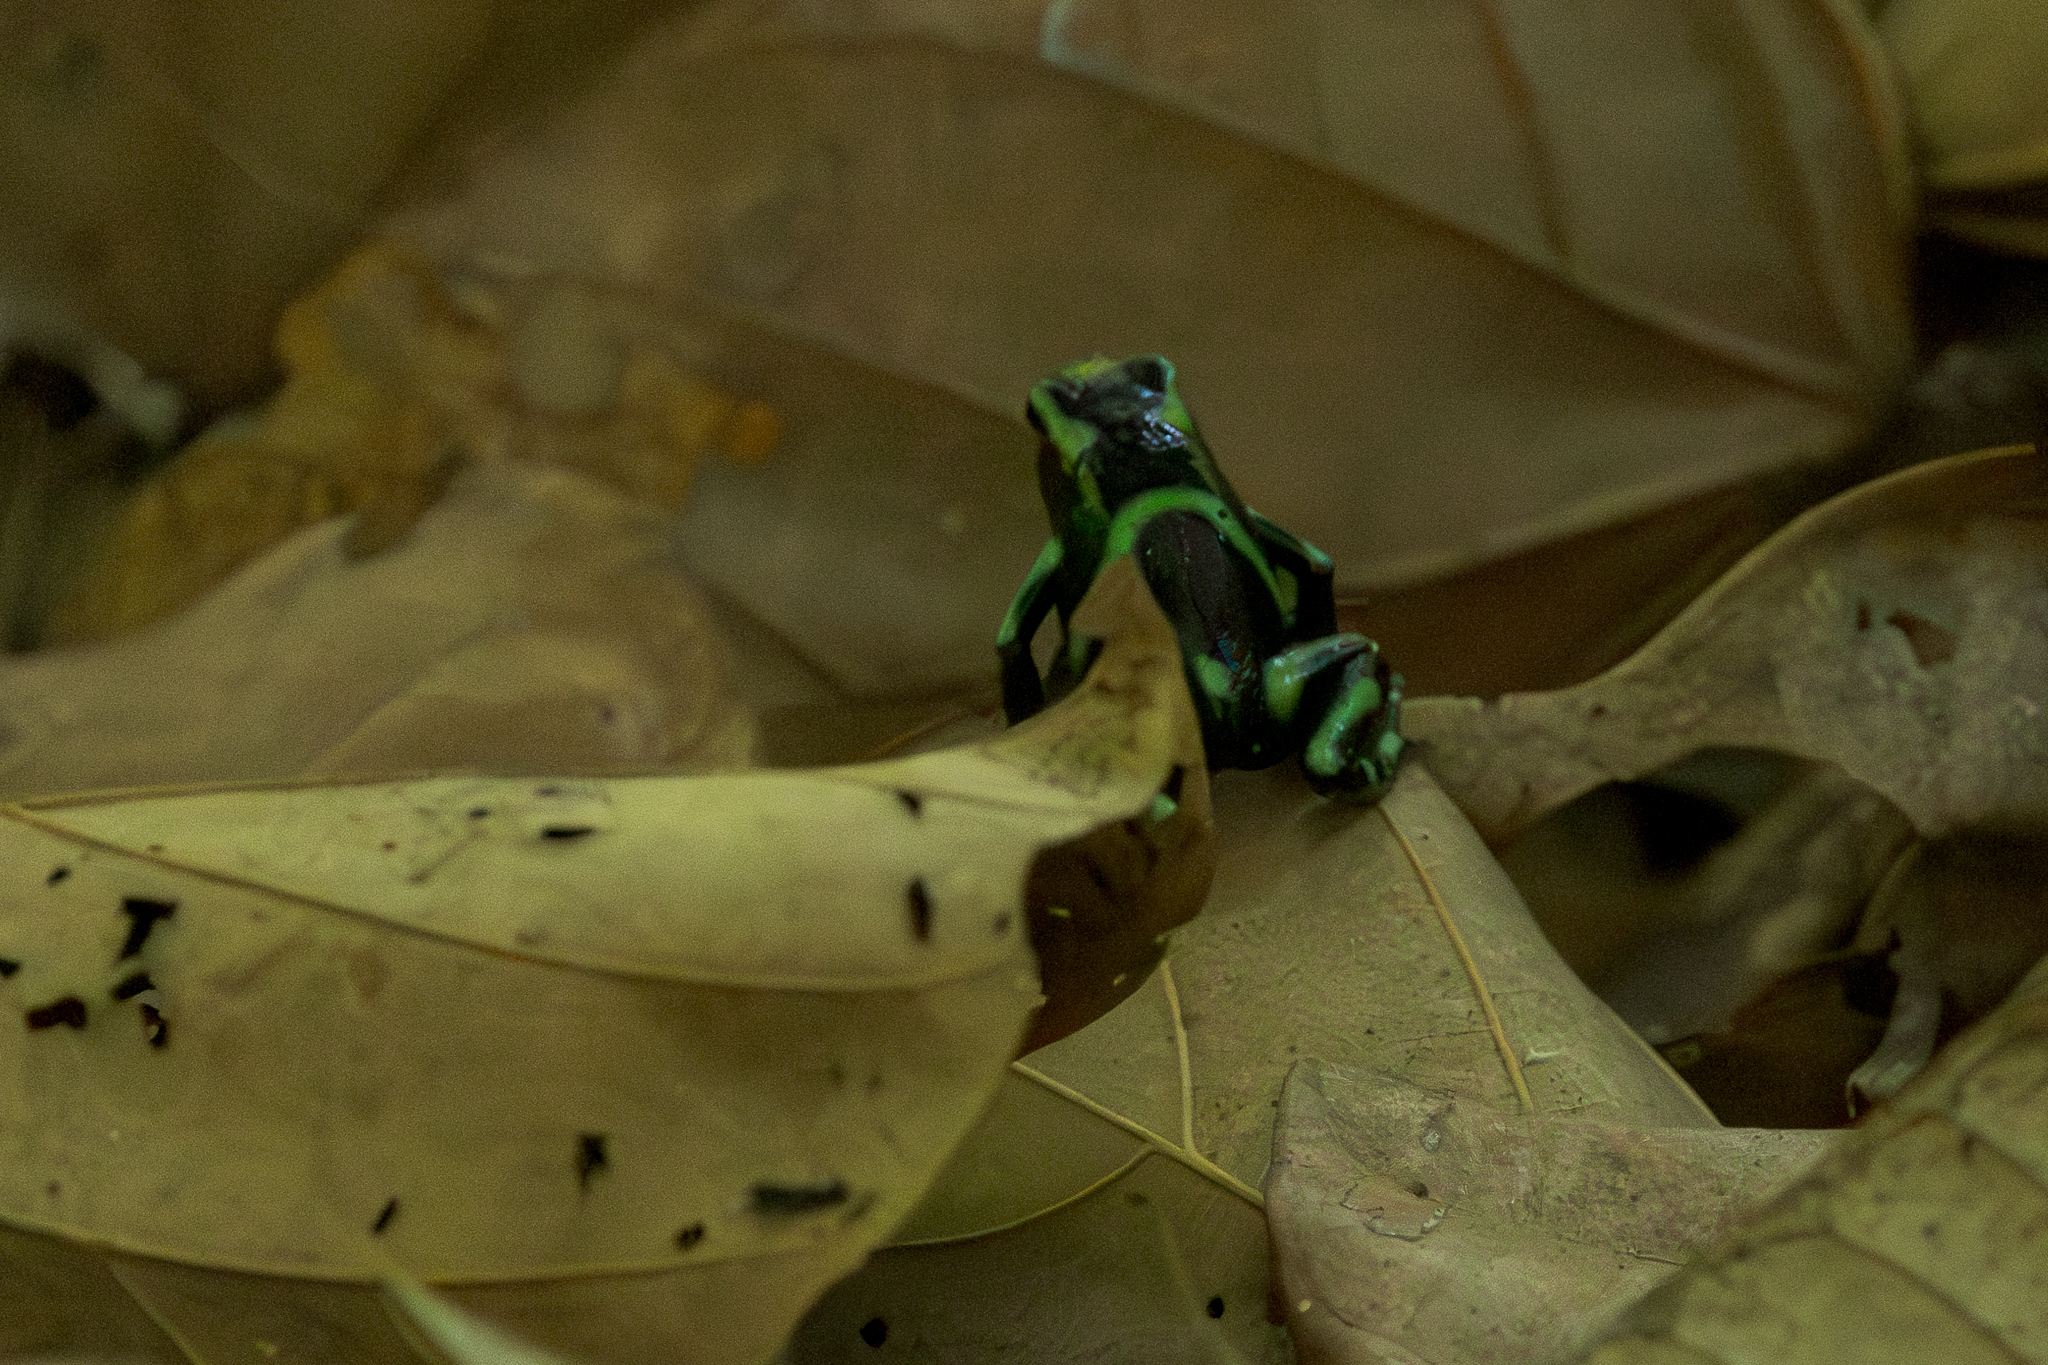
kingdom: Animalia
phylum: Chordata
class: Amphibia
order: Anura
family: Dendrobatidae
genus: Dendrobates
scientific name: Dendrobates auratus
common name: Green and black poison dart frog
